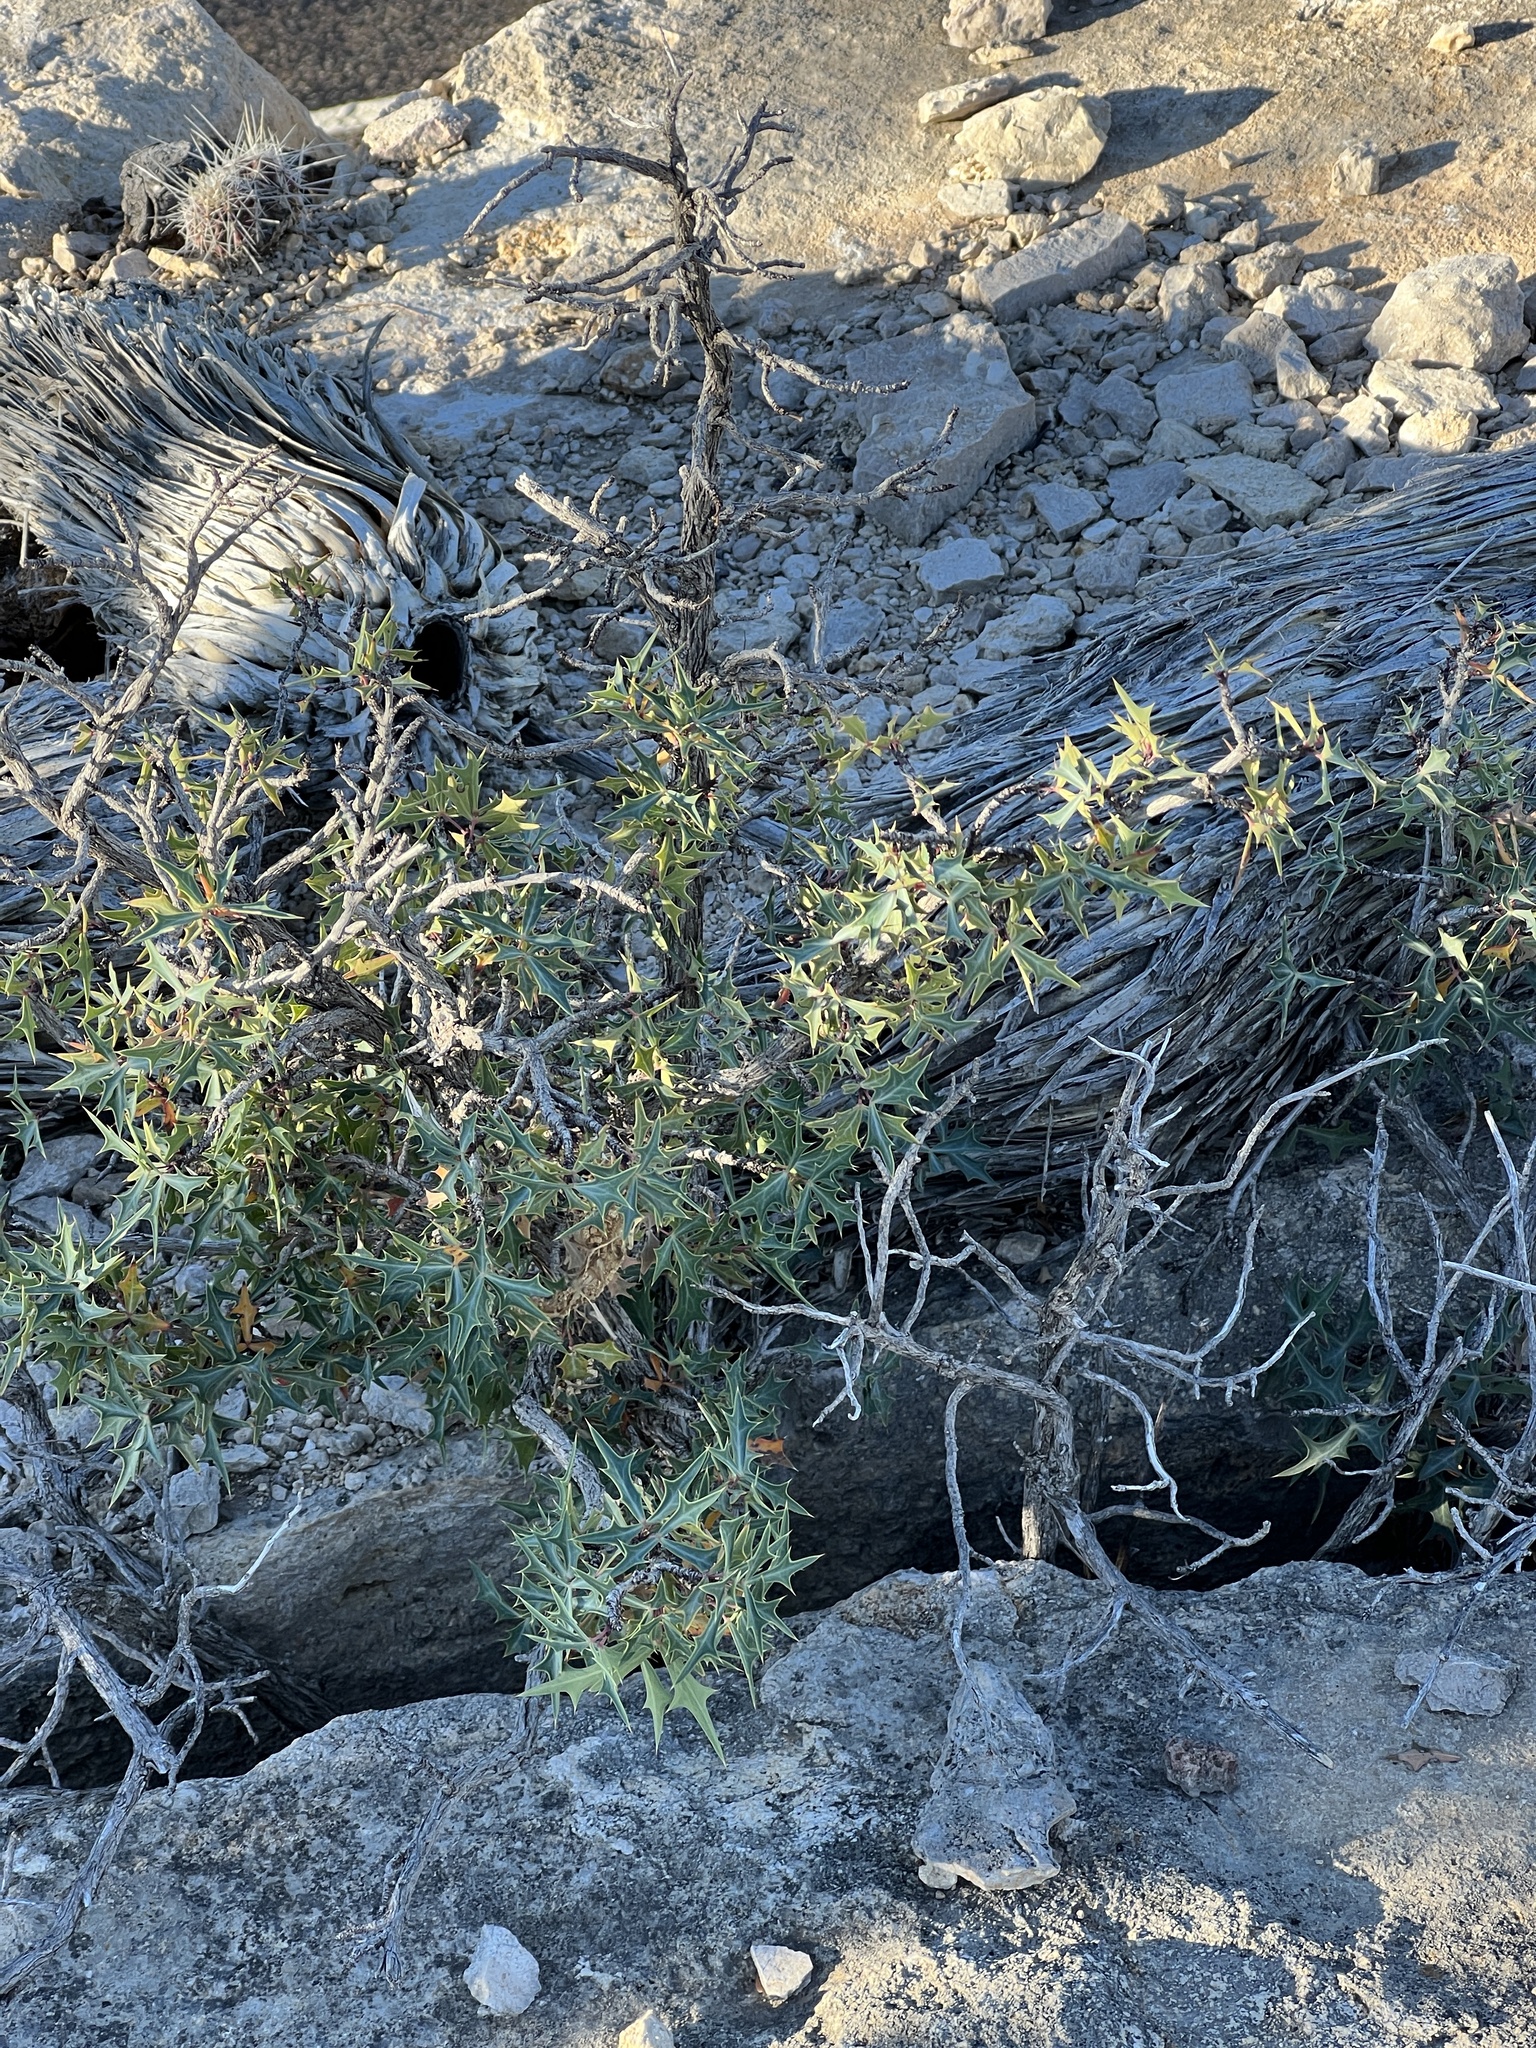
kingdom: Plantae
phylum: Tracheophyta
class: Magnoliopsida
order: Ranunculales
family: Berberidaceae
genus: Alloberberis
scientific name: Alloberberis trifoliolata
